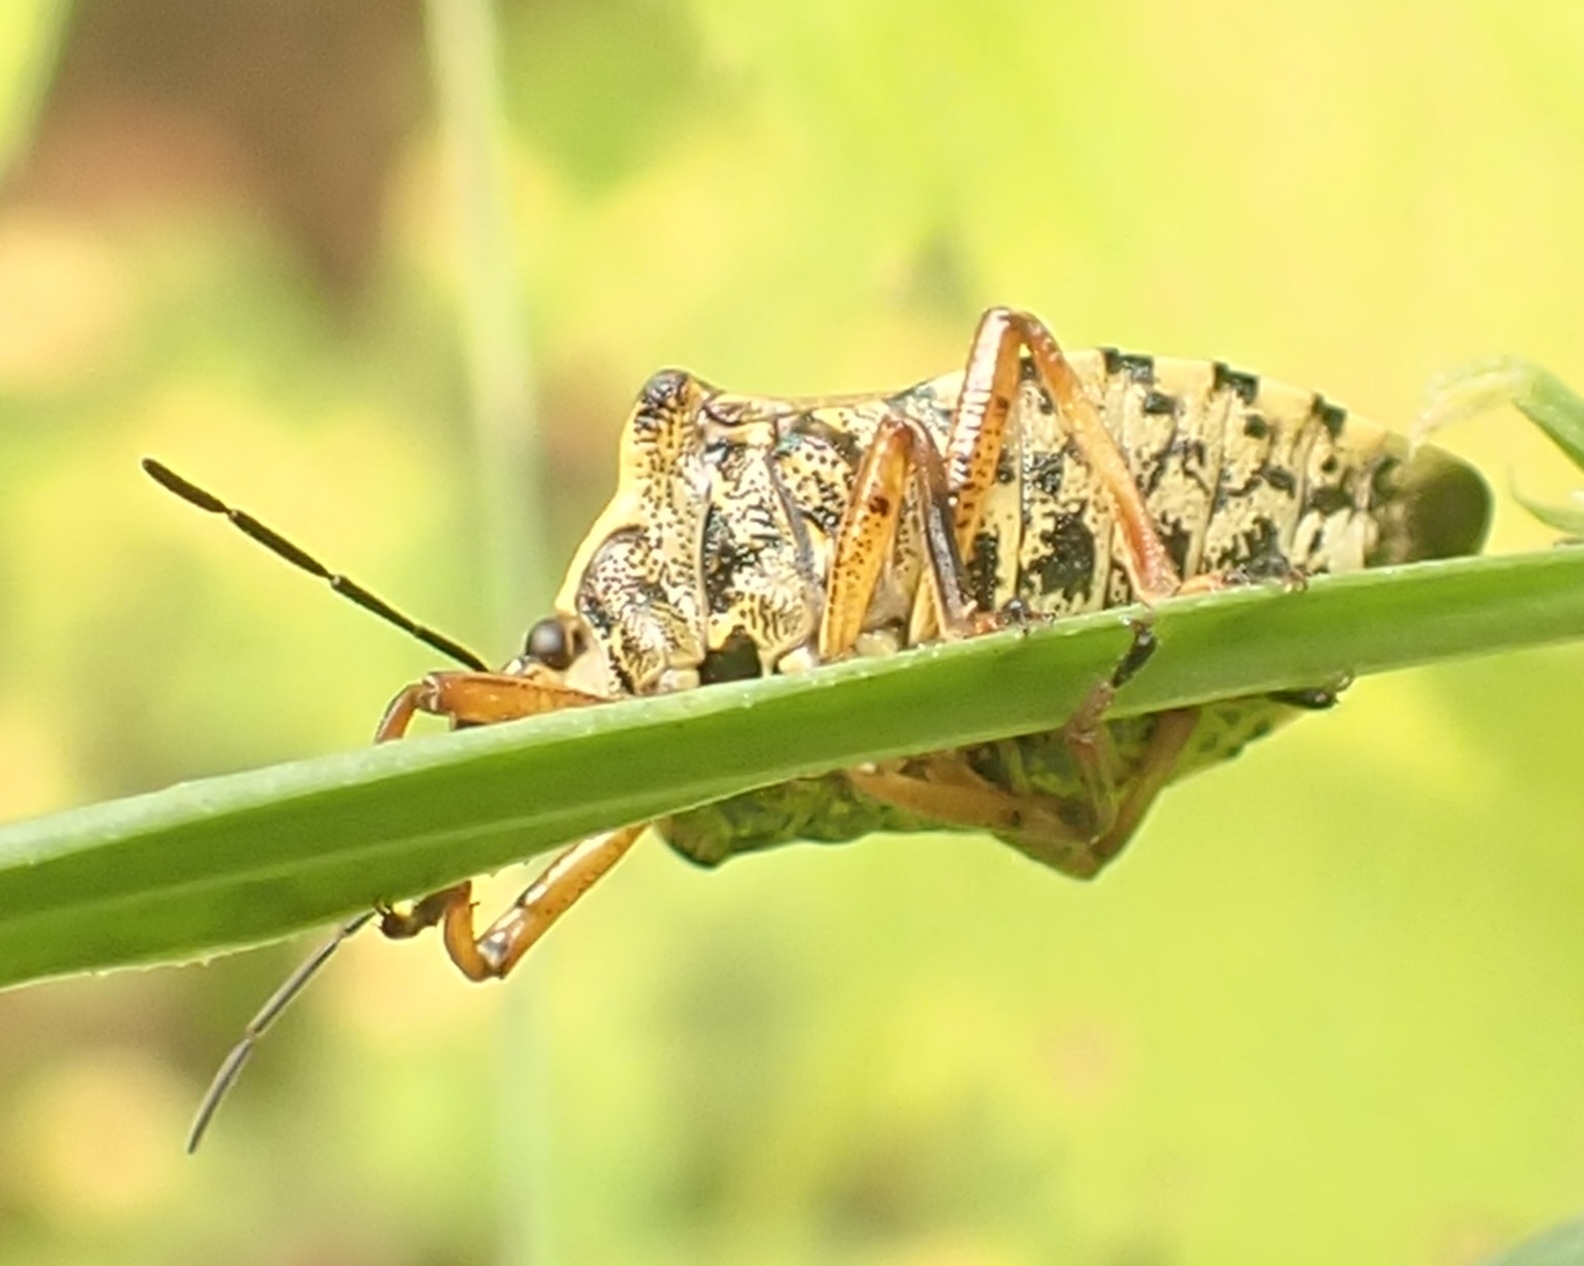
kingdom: Animalia
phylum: Arthropoda
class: Insecta
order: Hemiptera
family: Pentatomidae
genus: Pinthaeus
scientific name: Pinthaeus sanguinipes
